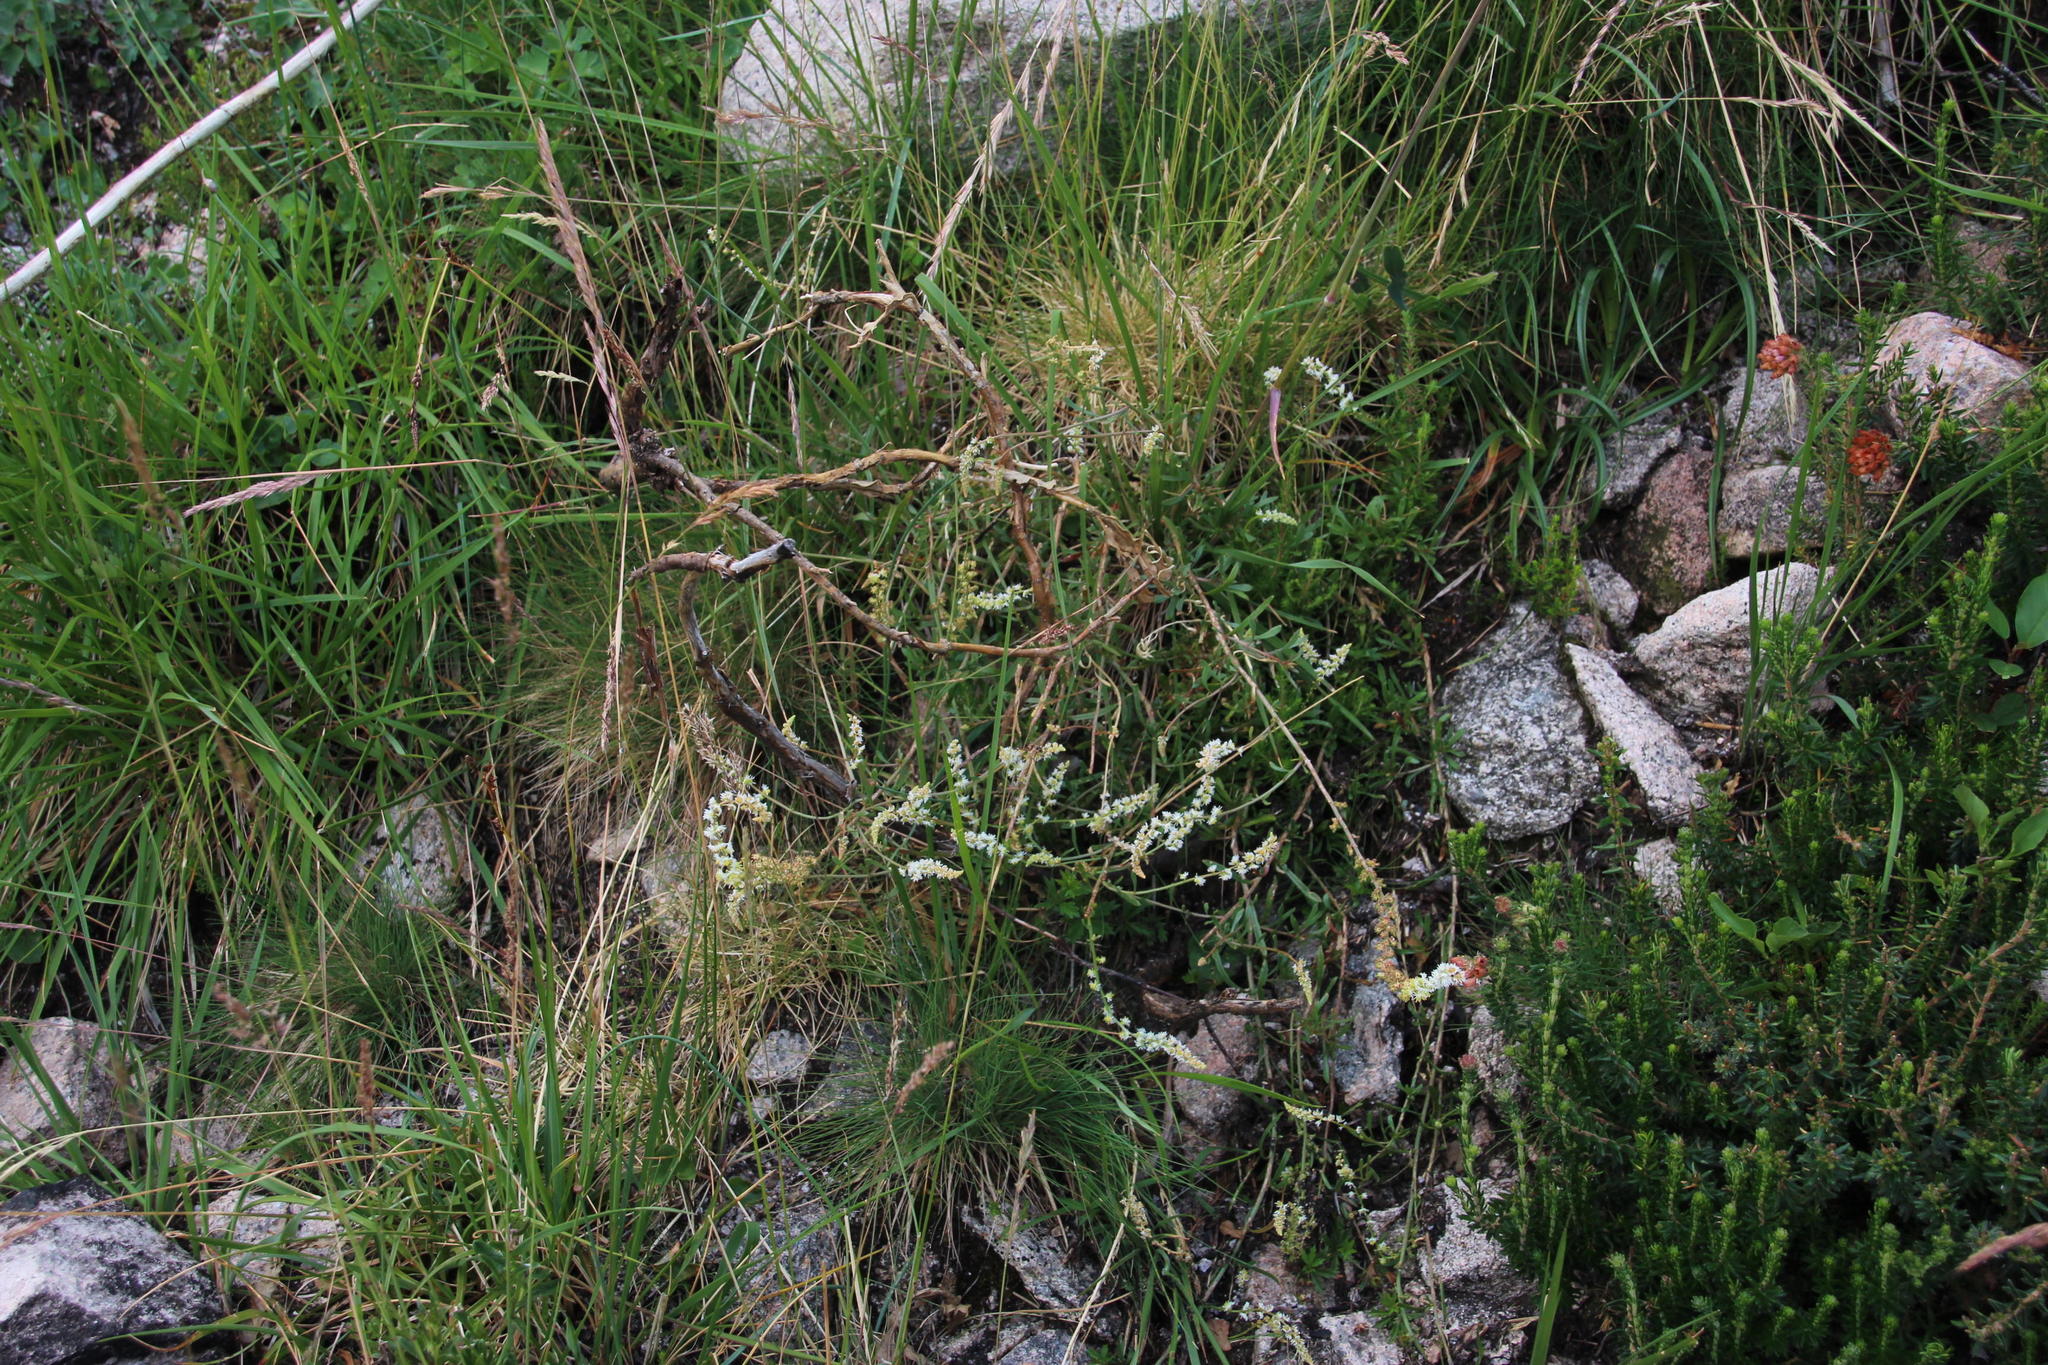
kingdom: Plantae
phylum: Tracheophyta
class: Magnoliopsida
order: Brassicales
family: Resedaceae
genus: Sesamoides
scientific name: Sesamoides purpurascens
